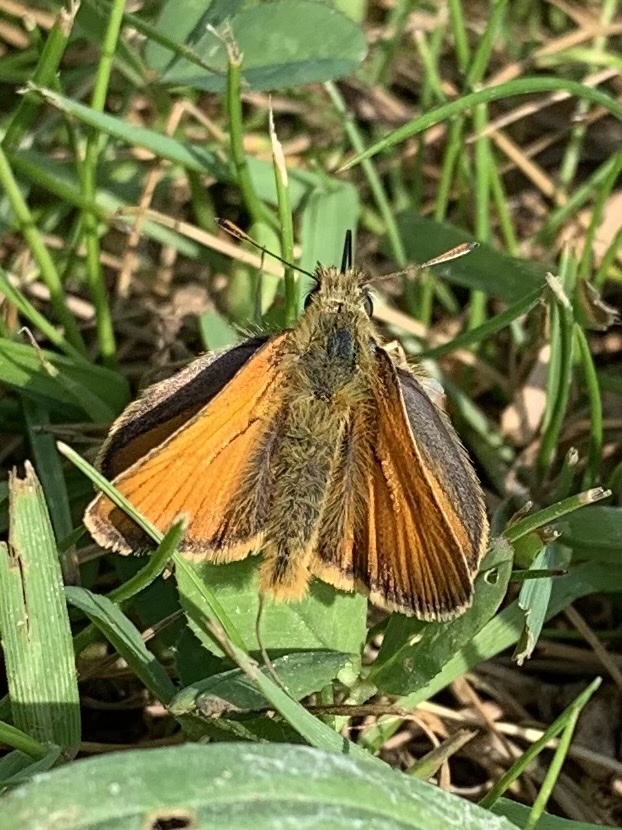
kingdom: Animalia
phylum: Arthropoda
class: Insecta
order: Lepidoptera
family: Hesperiidae
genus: Thymelicus
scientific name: Thymelicus sylvestris
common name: Small skipper
